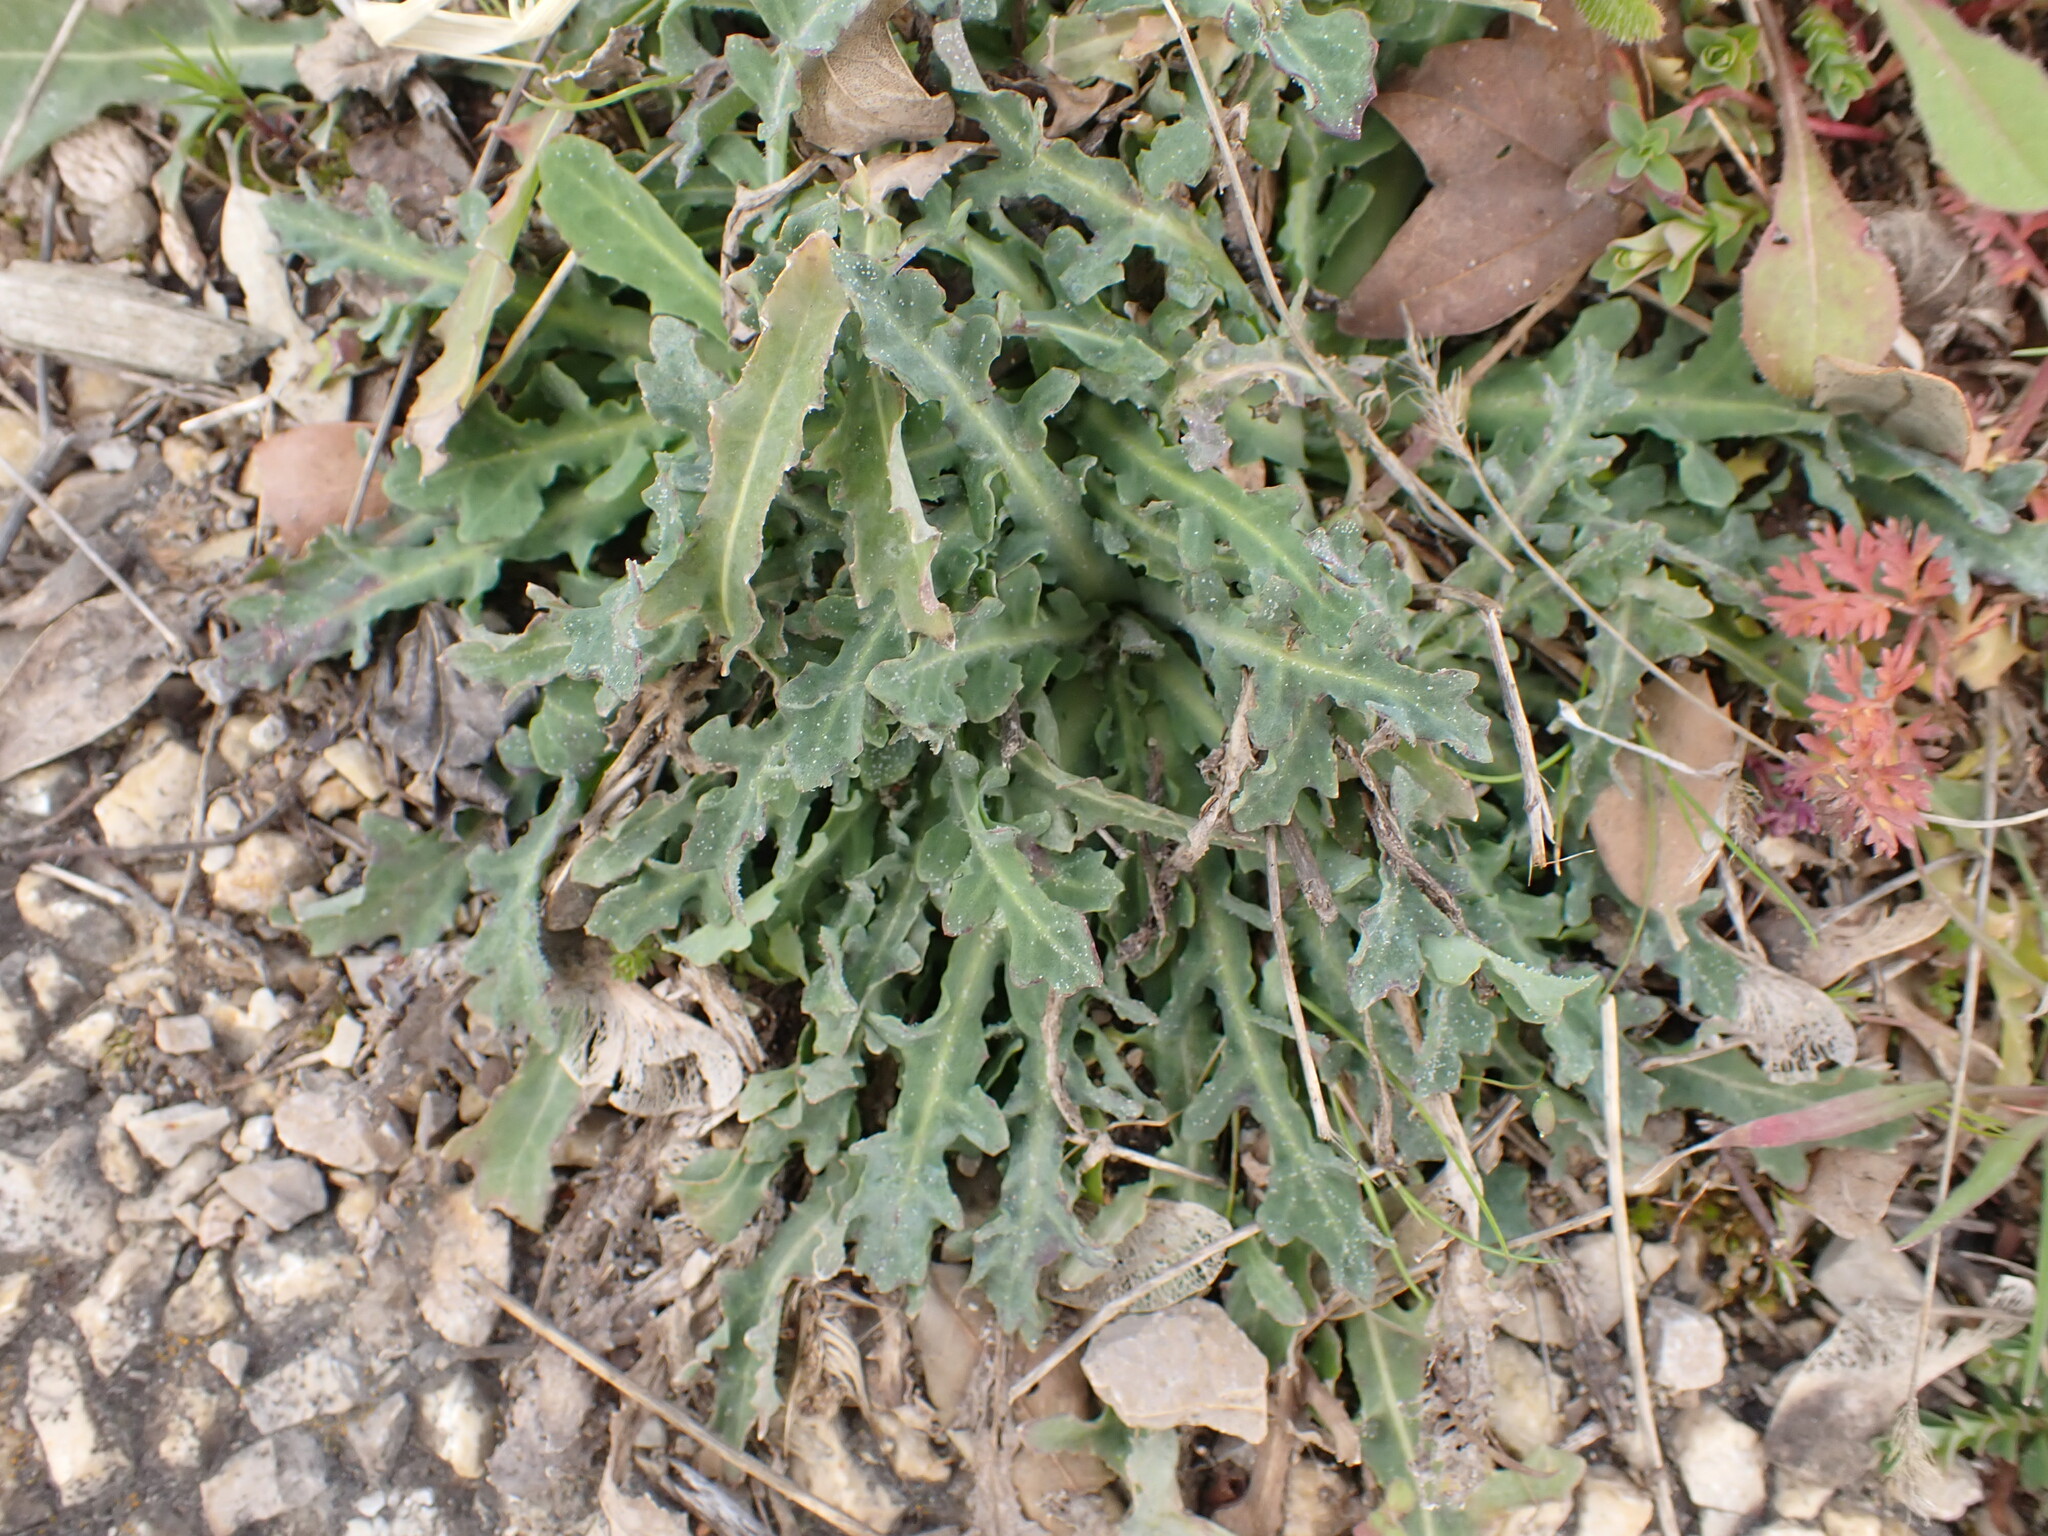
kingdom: Plantae
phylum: Tracheophyta
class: Magnoliopsida
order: Asterales
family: Asteraceae
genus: Reichardia
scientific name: Reichardia picroides
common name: Common brighteyes
